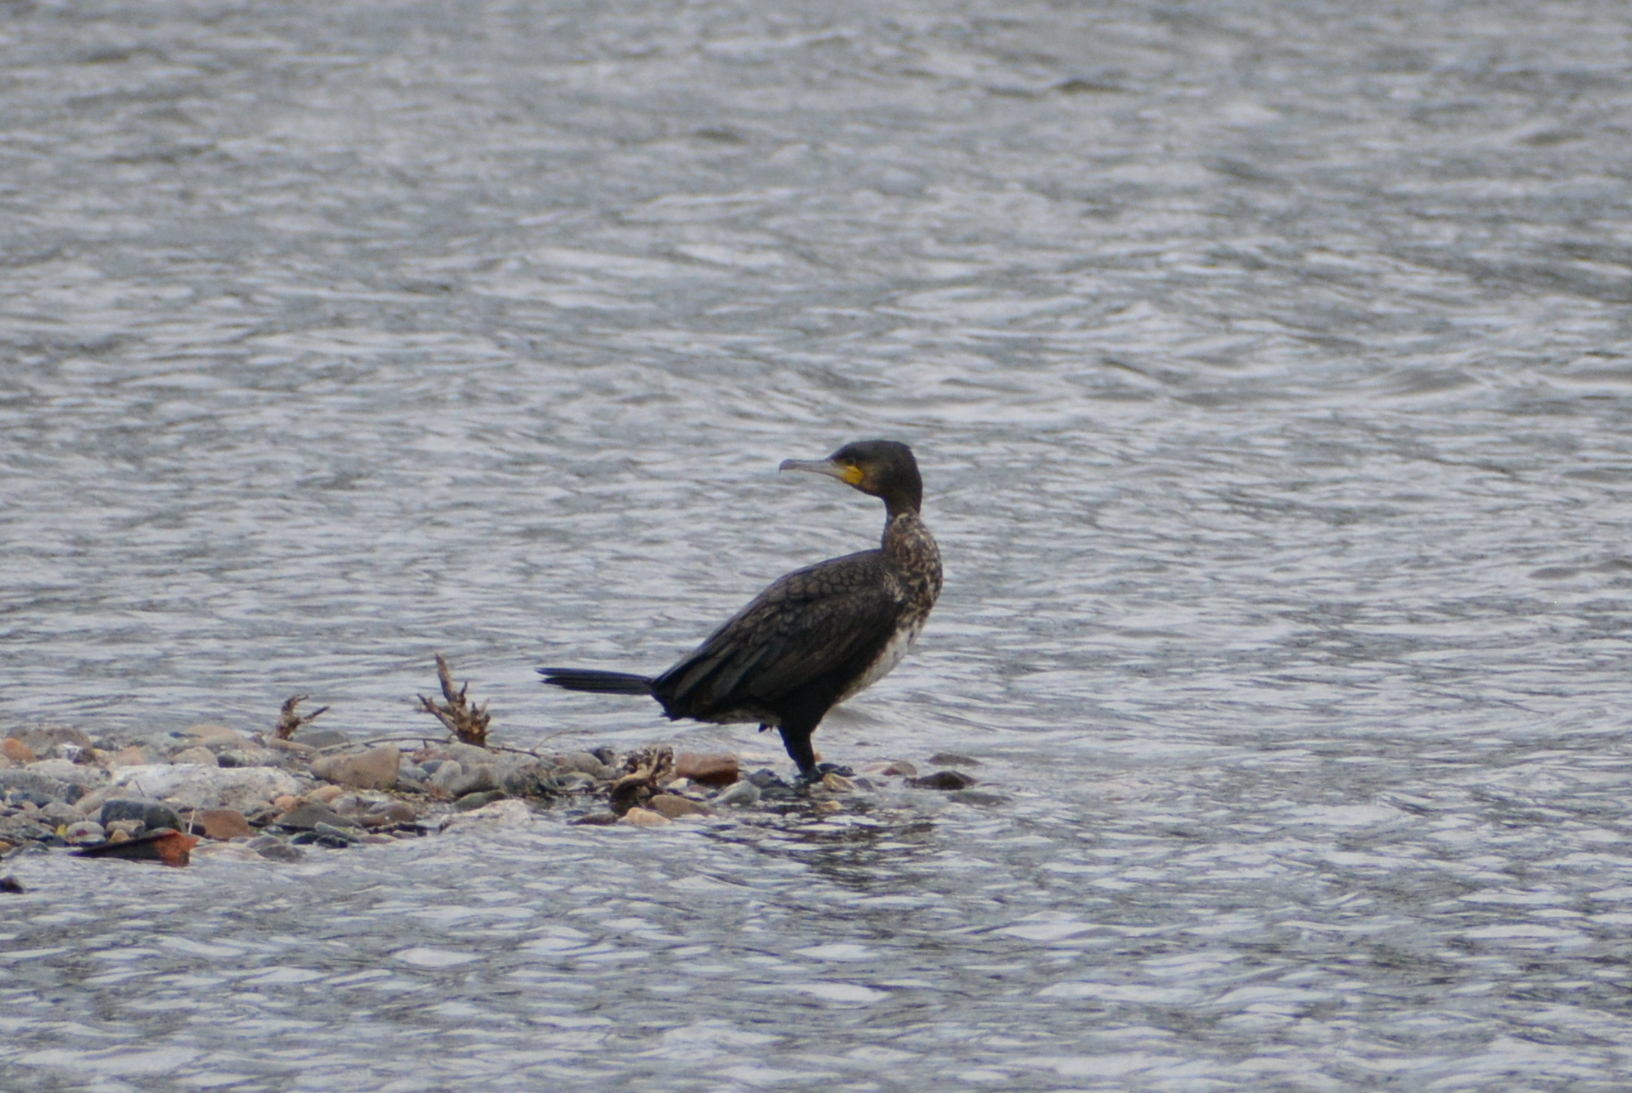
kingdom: Animalia
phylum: Chordata
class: Aves
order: Suliformes
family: Phalacrocoracidae
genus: Phalacrocorax
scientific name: Phalacrocorax carbo
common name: Great cormorant
